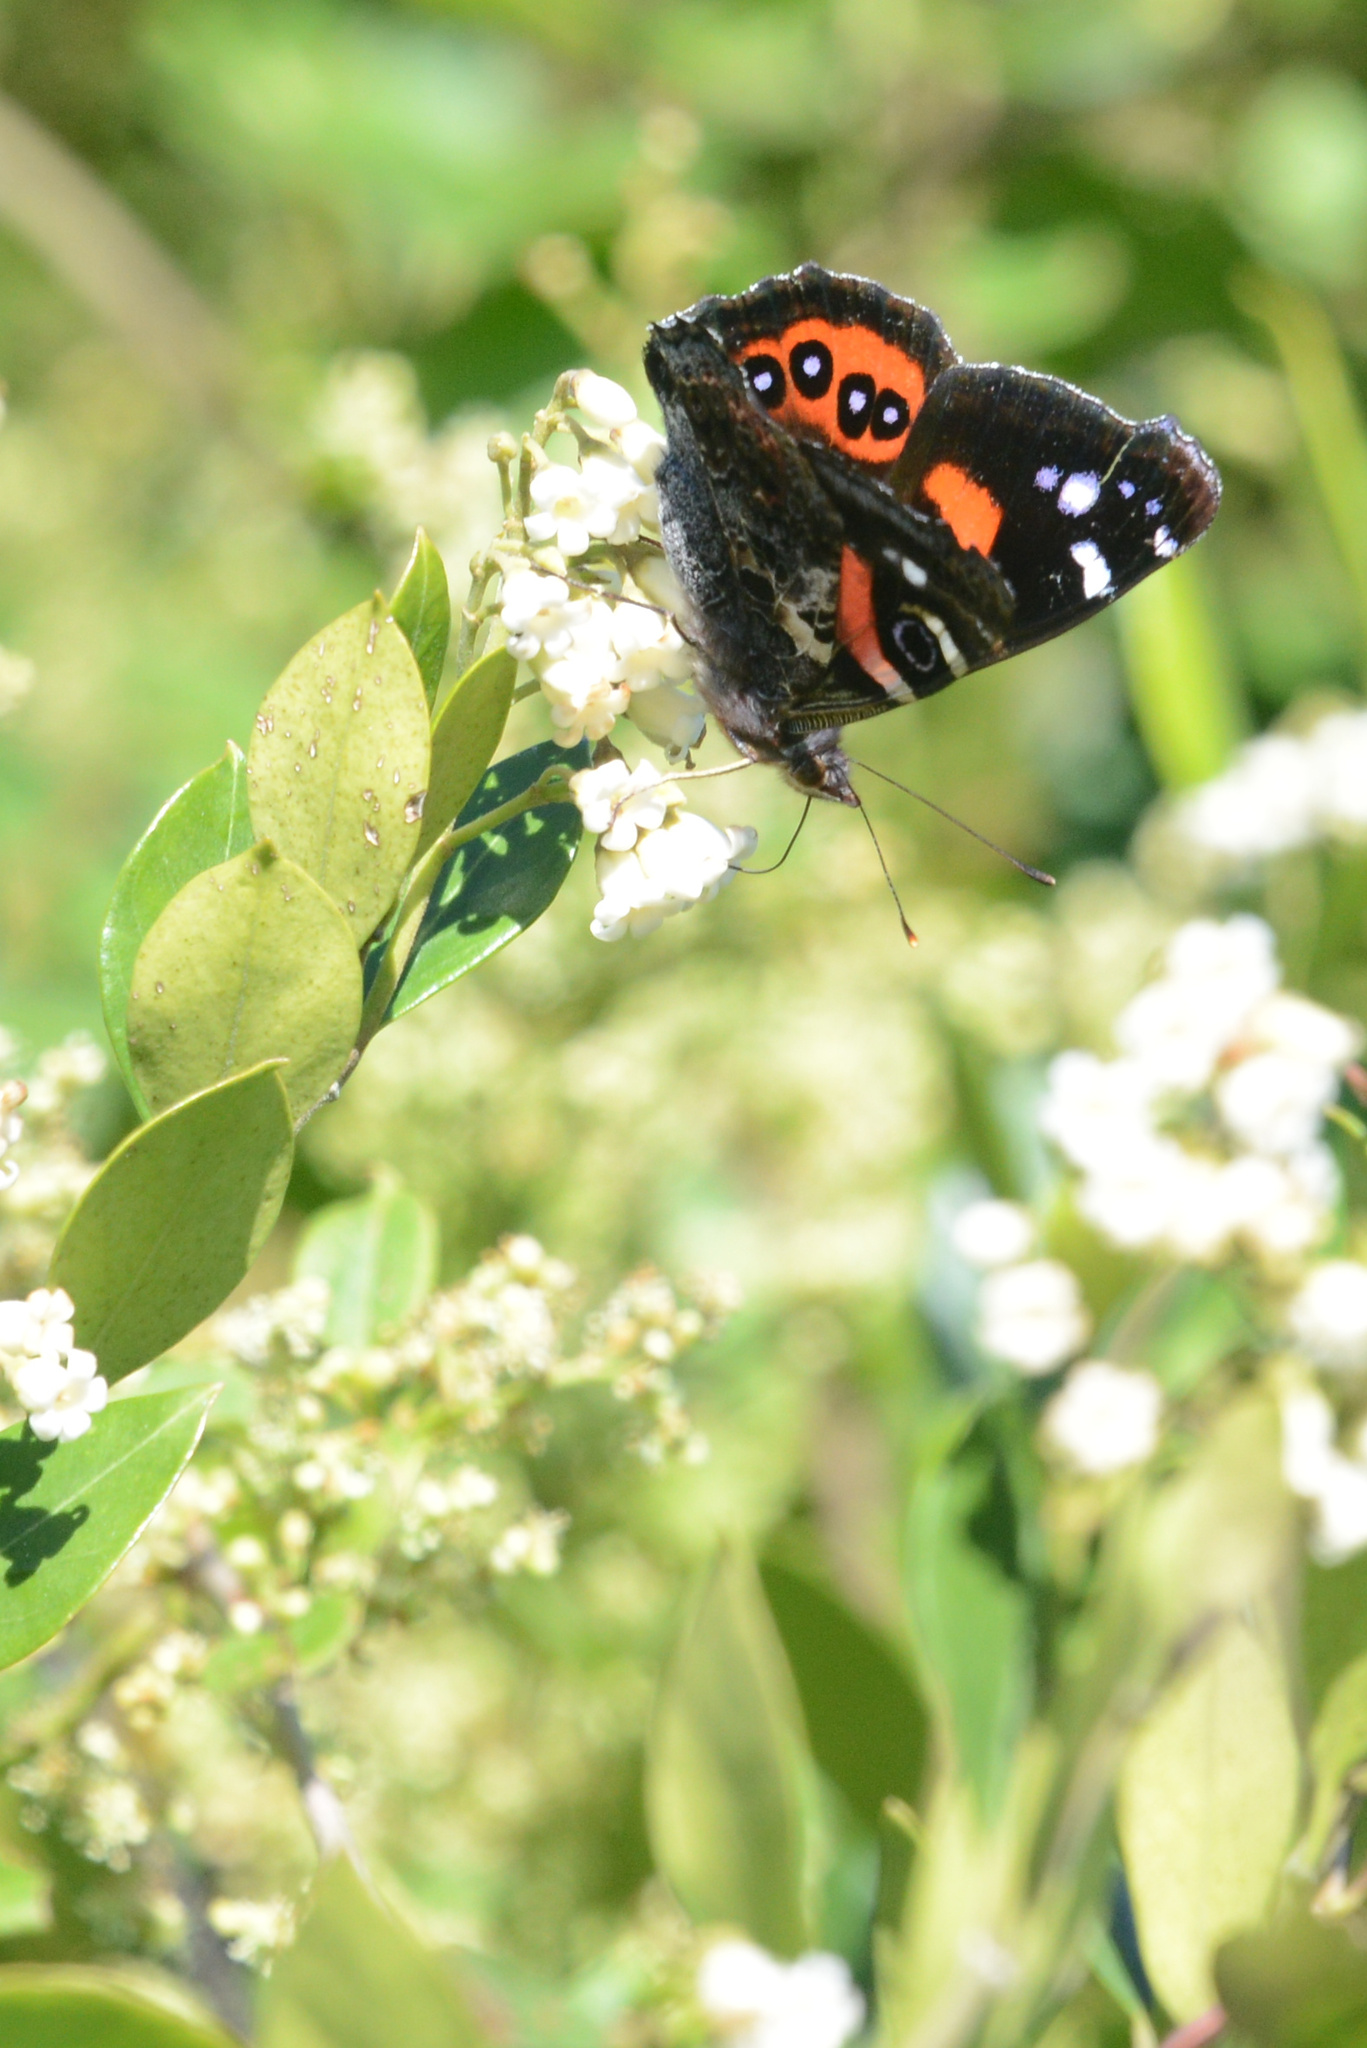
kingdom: Animalia
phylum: Arthropoda
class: Insecta
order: Lepidoptera
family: Nymphalidae
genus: Vanessa
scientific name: Vanessa gonerilla
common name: New zealand red admiral
